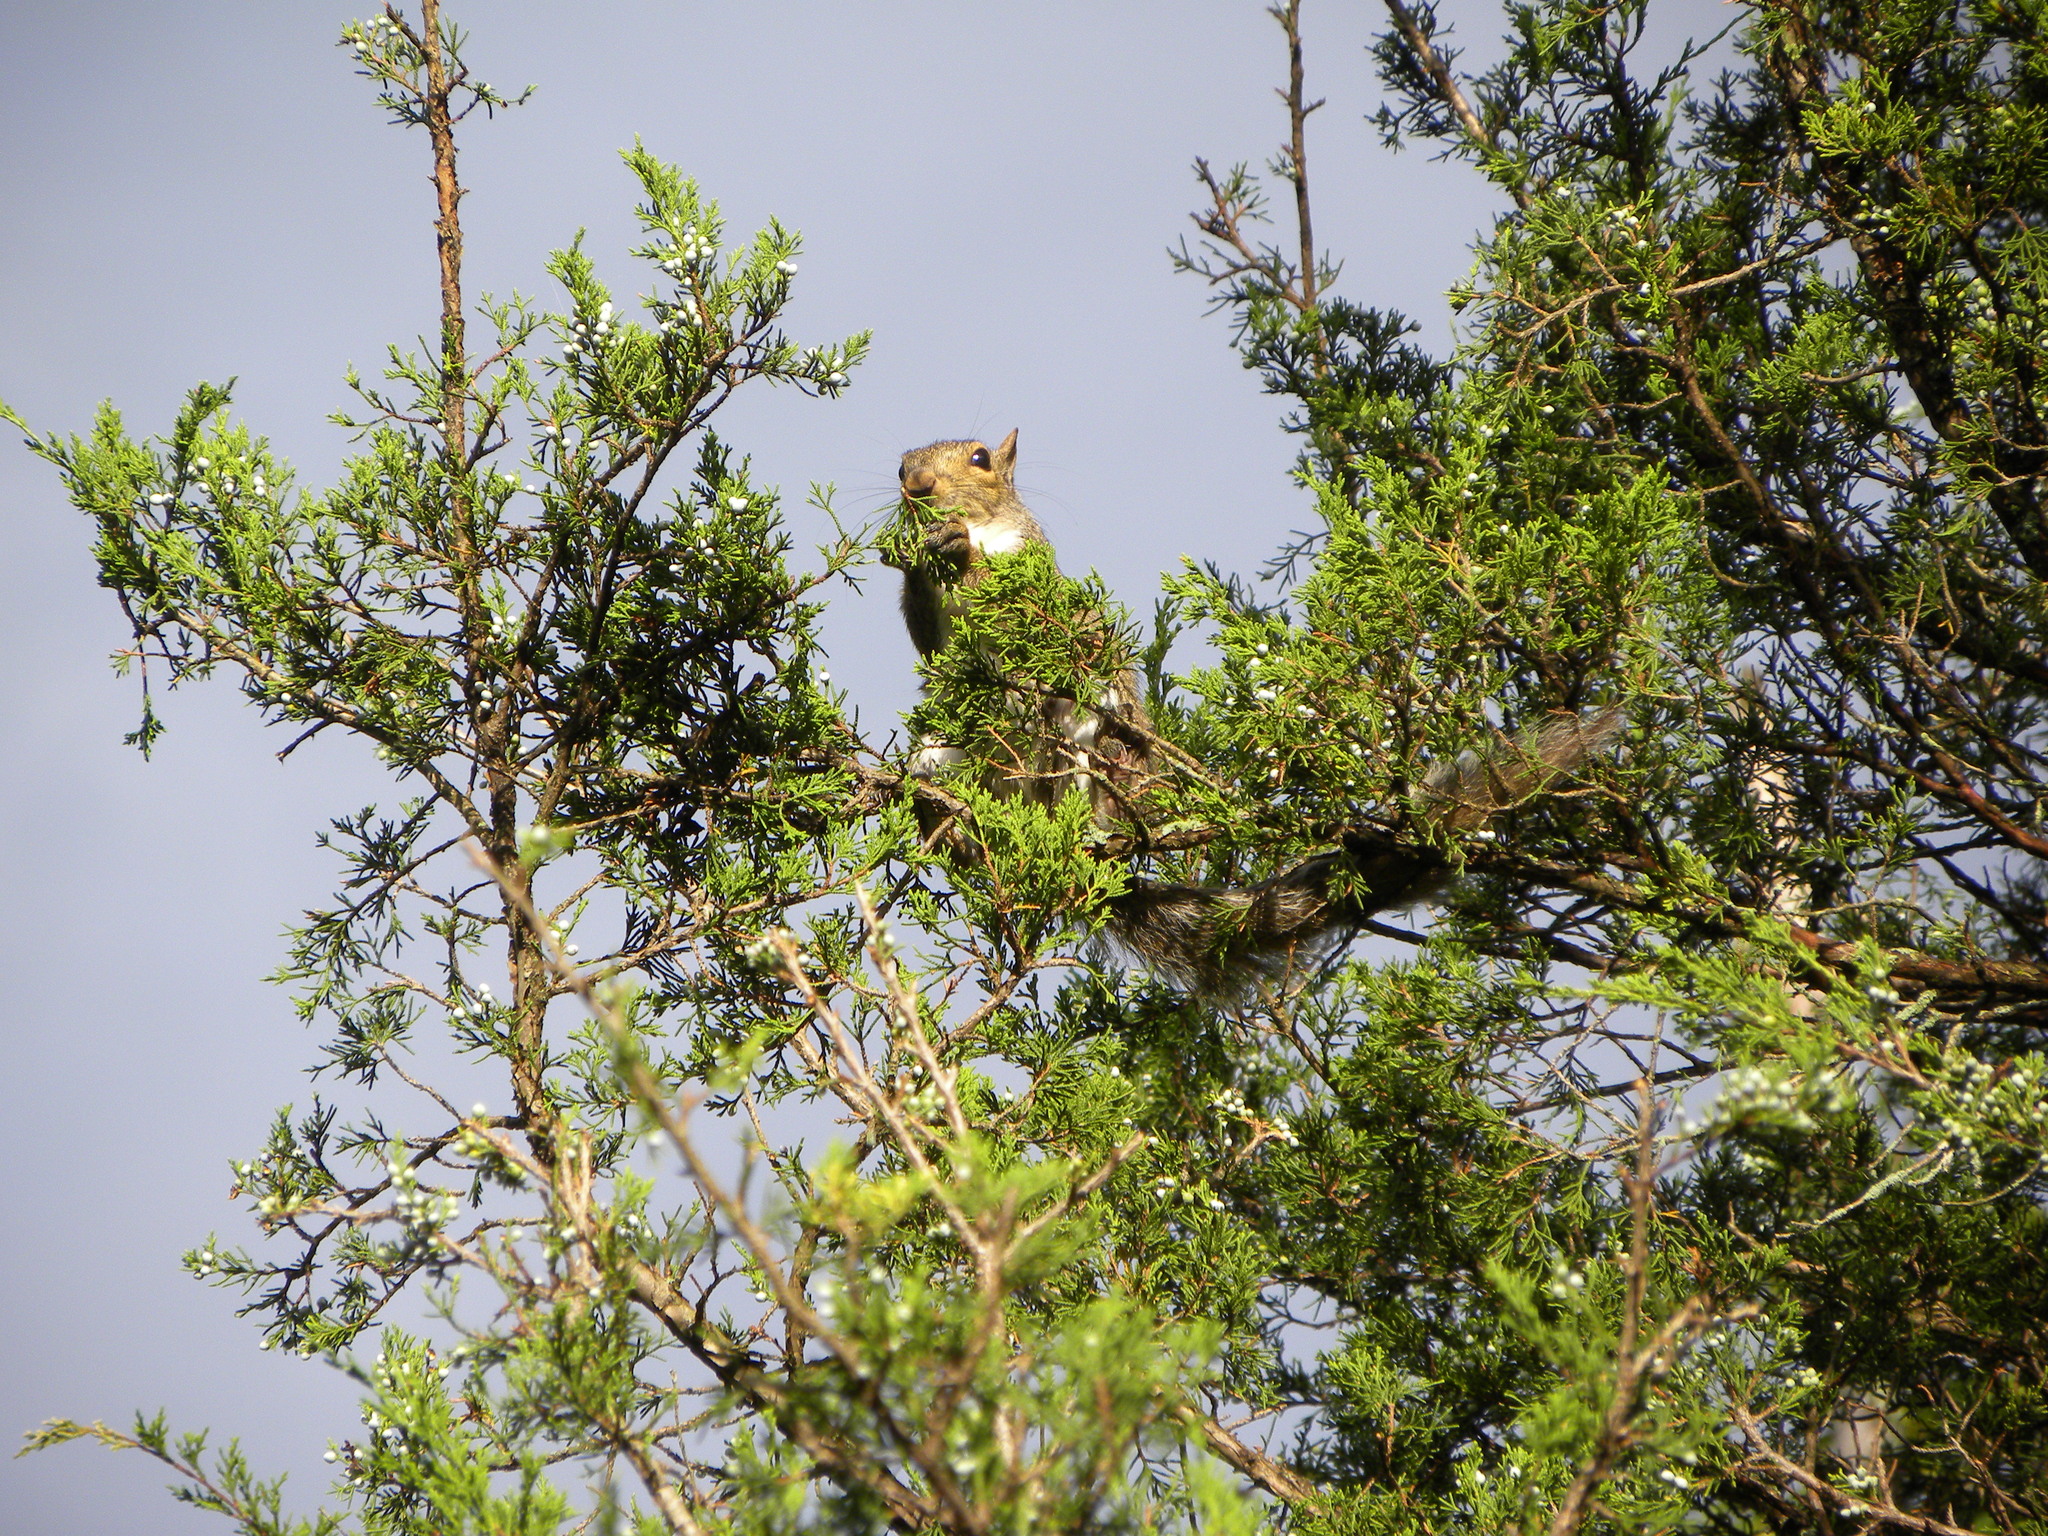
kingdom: Animalia
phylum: Chordata
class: Mammalia
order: Rodentia
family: Sciuridae
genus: Sciurus
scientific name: Sciurus carolinensis
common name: Eastern gray squirrel
